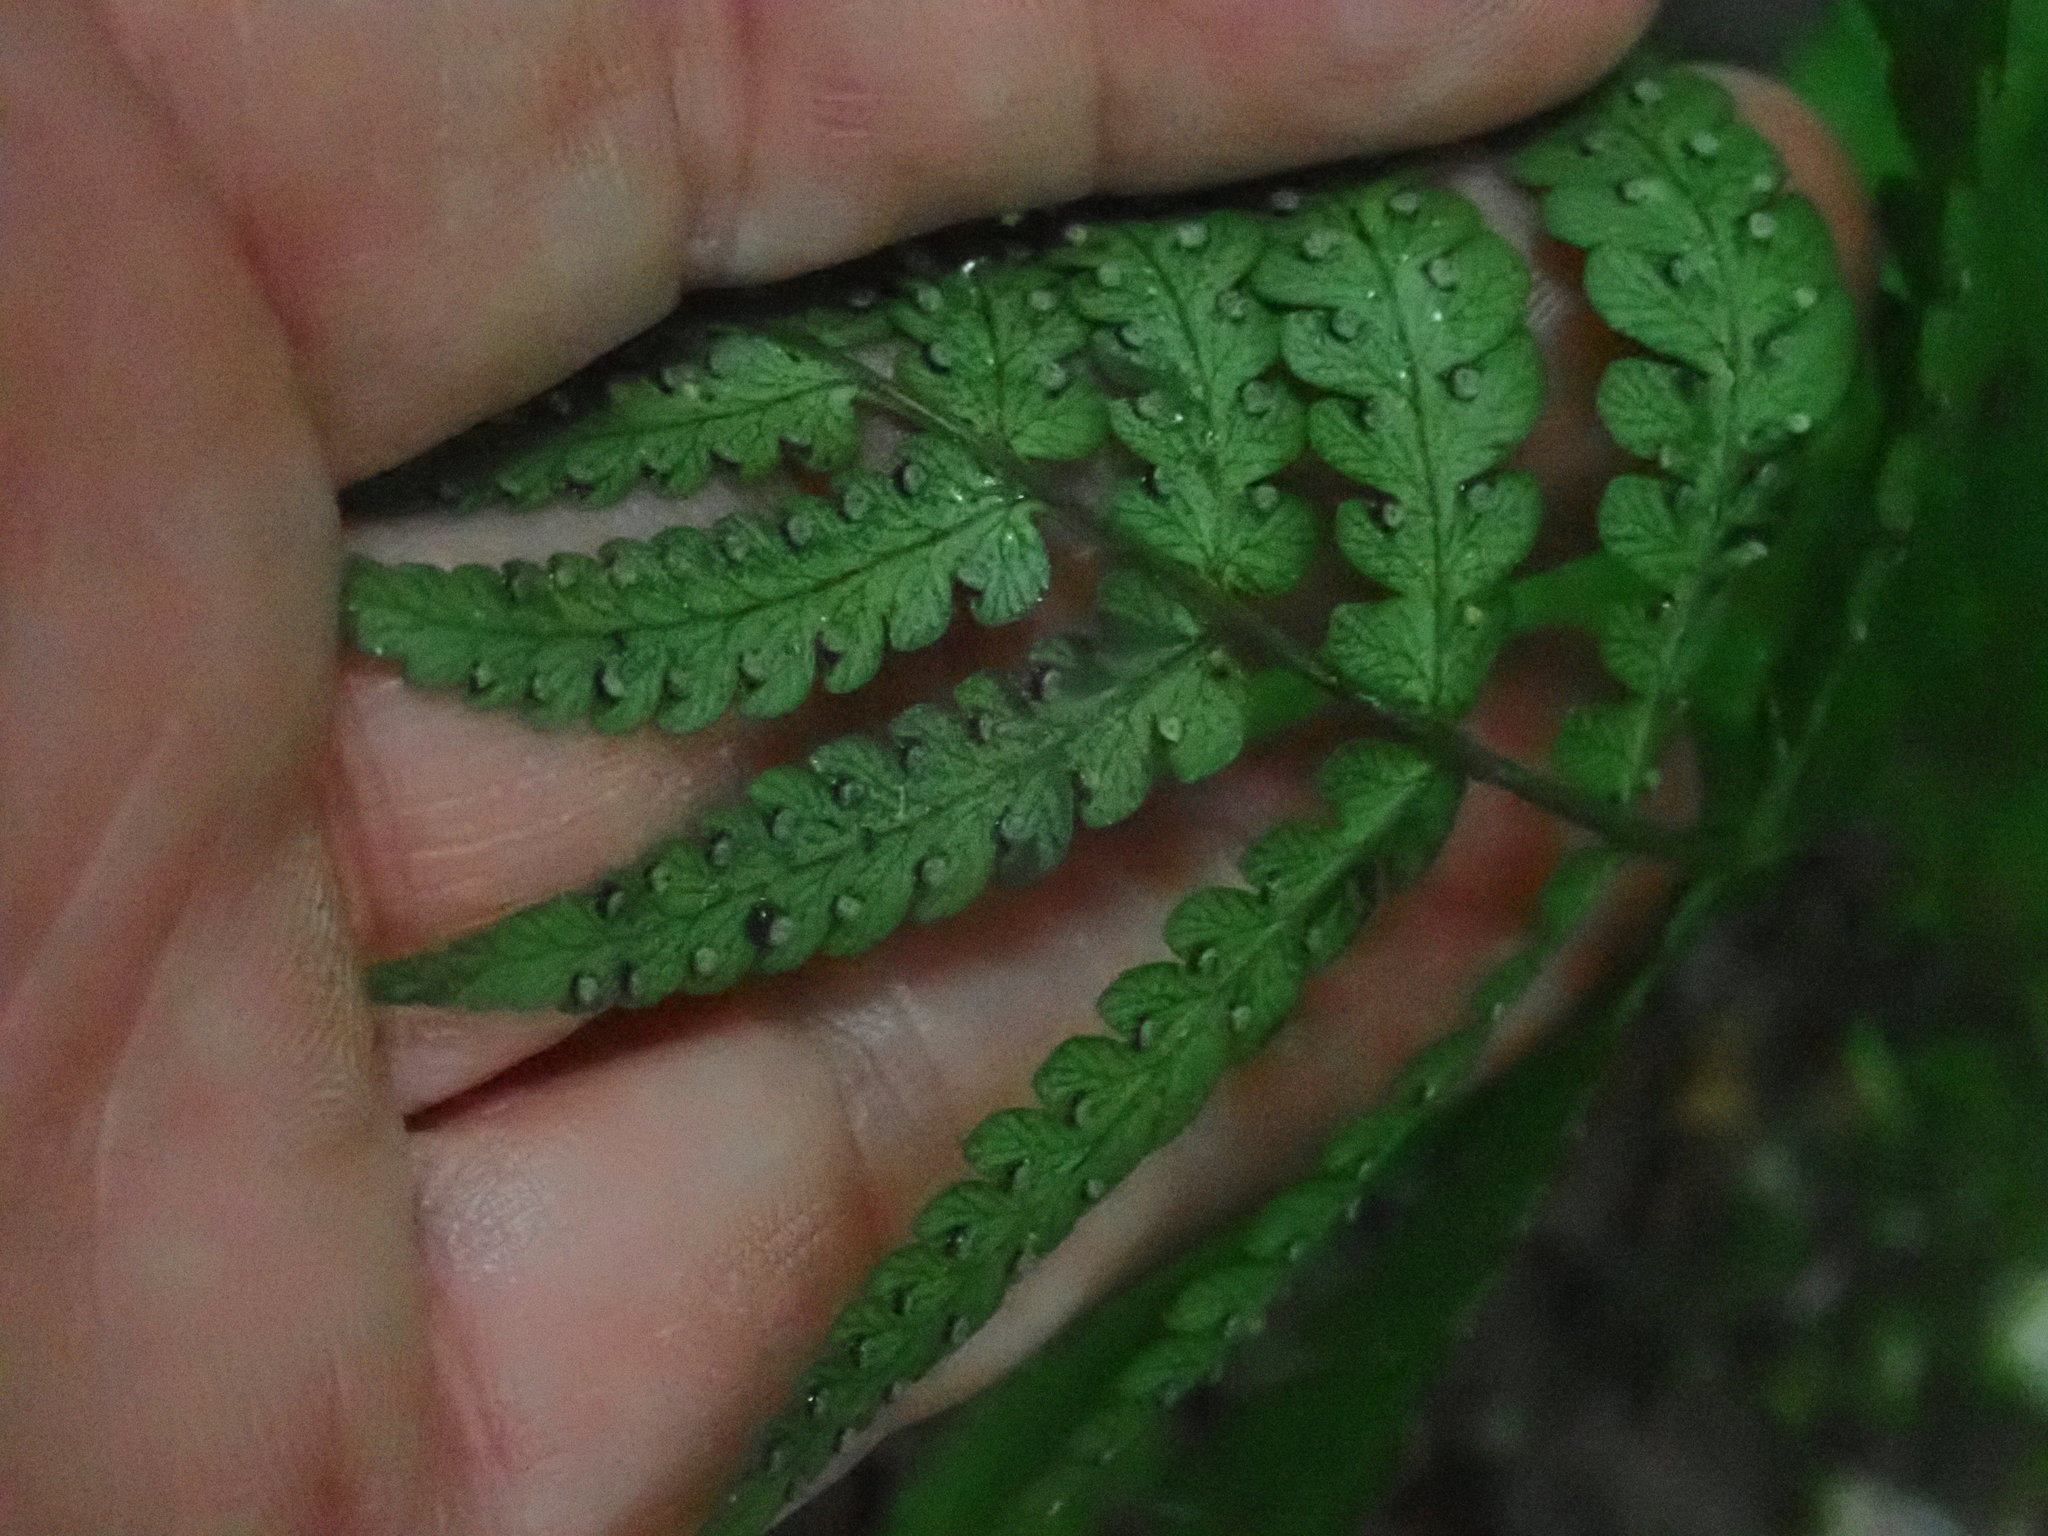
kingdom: Plantae
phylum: Tracheophyta
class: Polypodiopsida
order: Polypodiales
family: Dryopteridaceae
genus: Dryopteris
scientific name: Dryopteris marginalis
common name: Marginal wood fern
